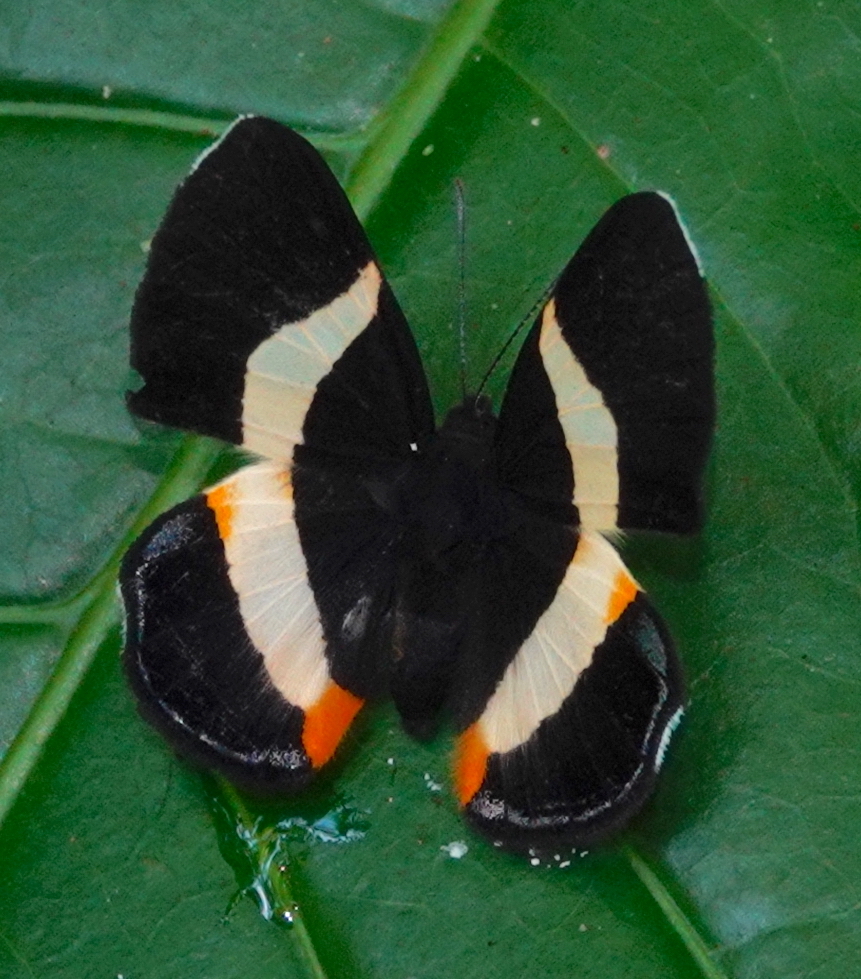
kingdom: Animalia
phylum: Arthropoda
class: Insecta
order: Lepidoptera
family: Riodinidae
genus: Notheme
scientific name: Notheme eumeus
